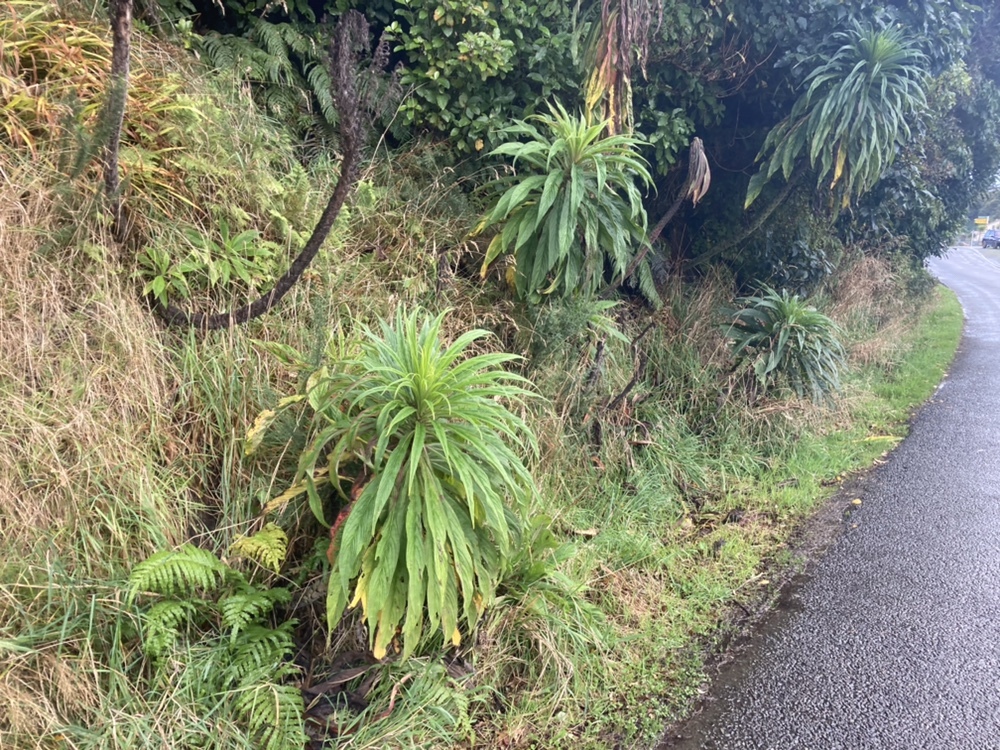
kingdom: Plantae
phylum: Tracheophyta
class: Magnoliopsida
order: Boraginales
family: Boraginaceae
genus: Echium
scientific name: Echium pininana
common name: Giant viper's-bugloss
